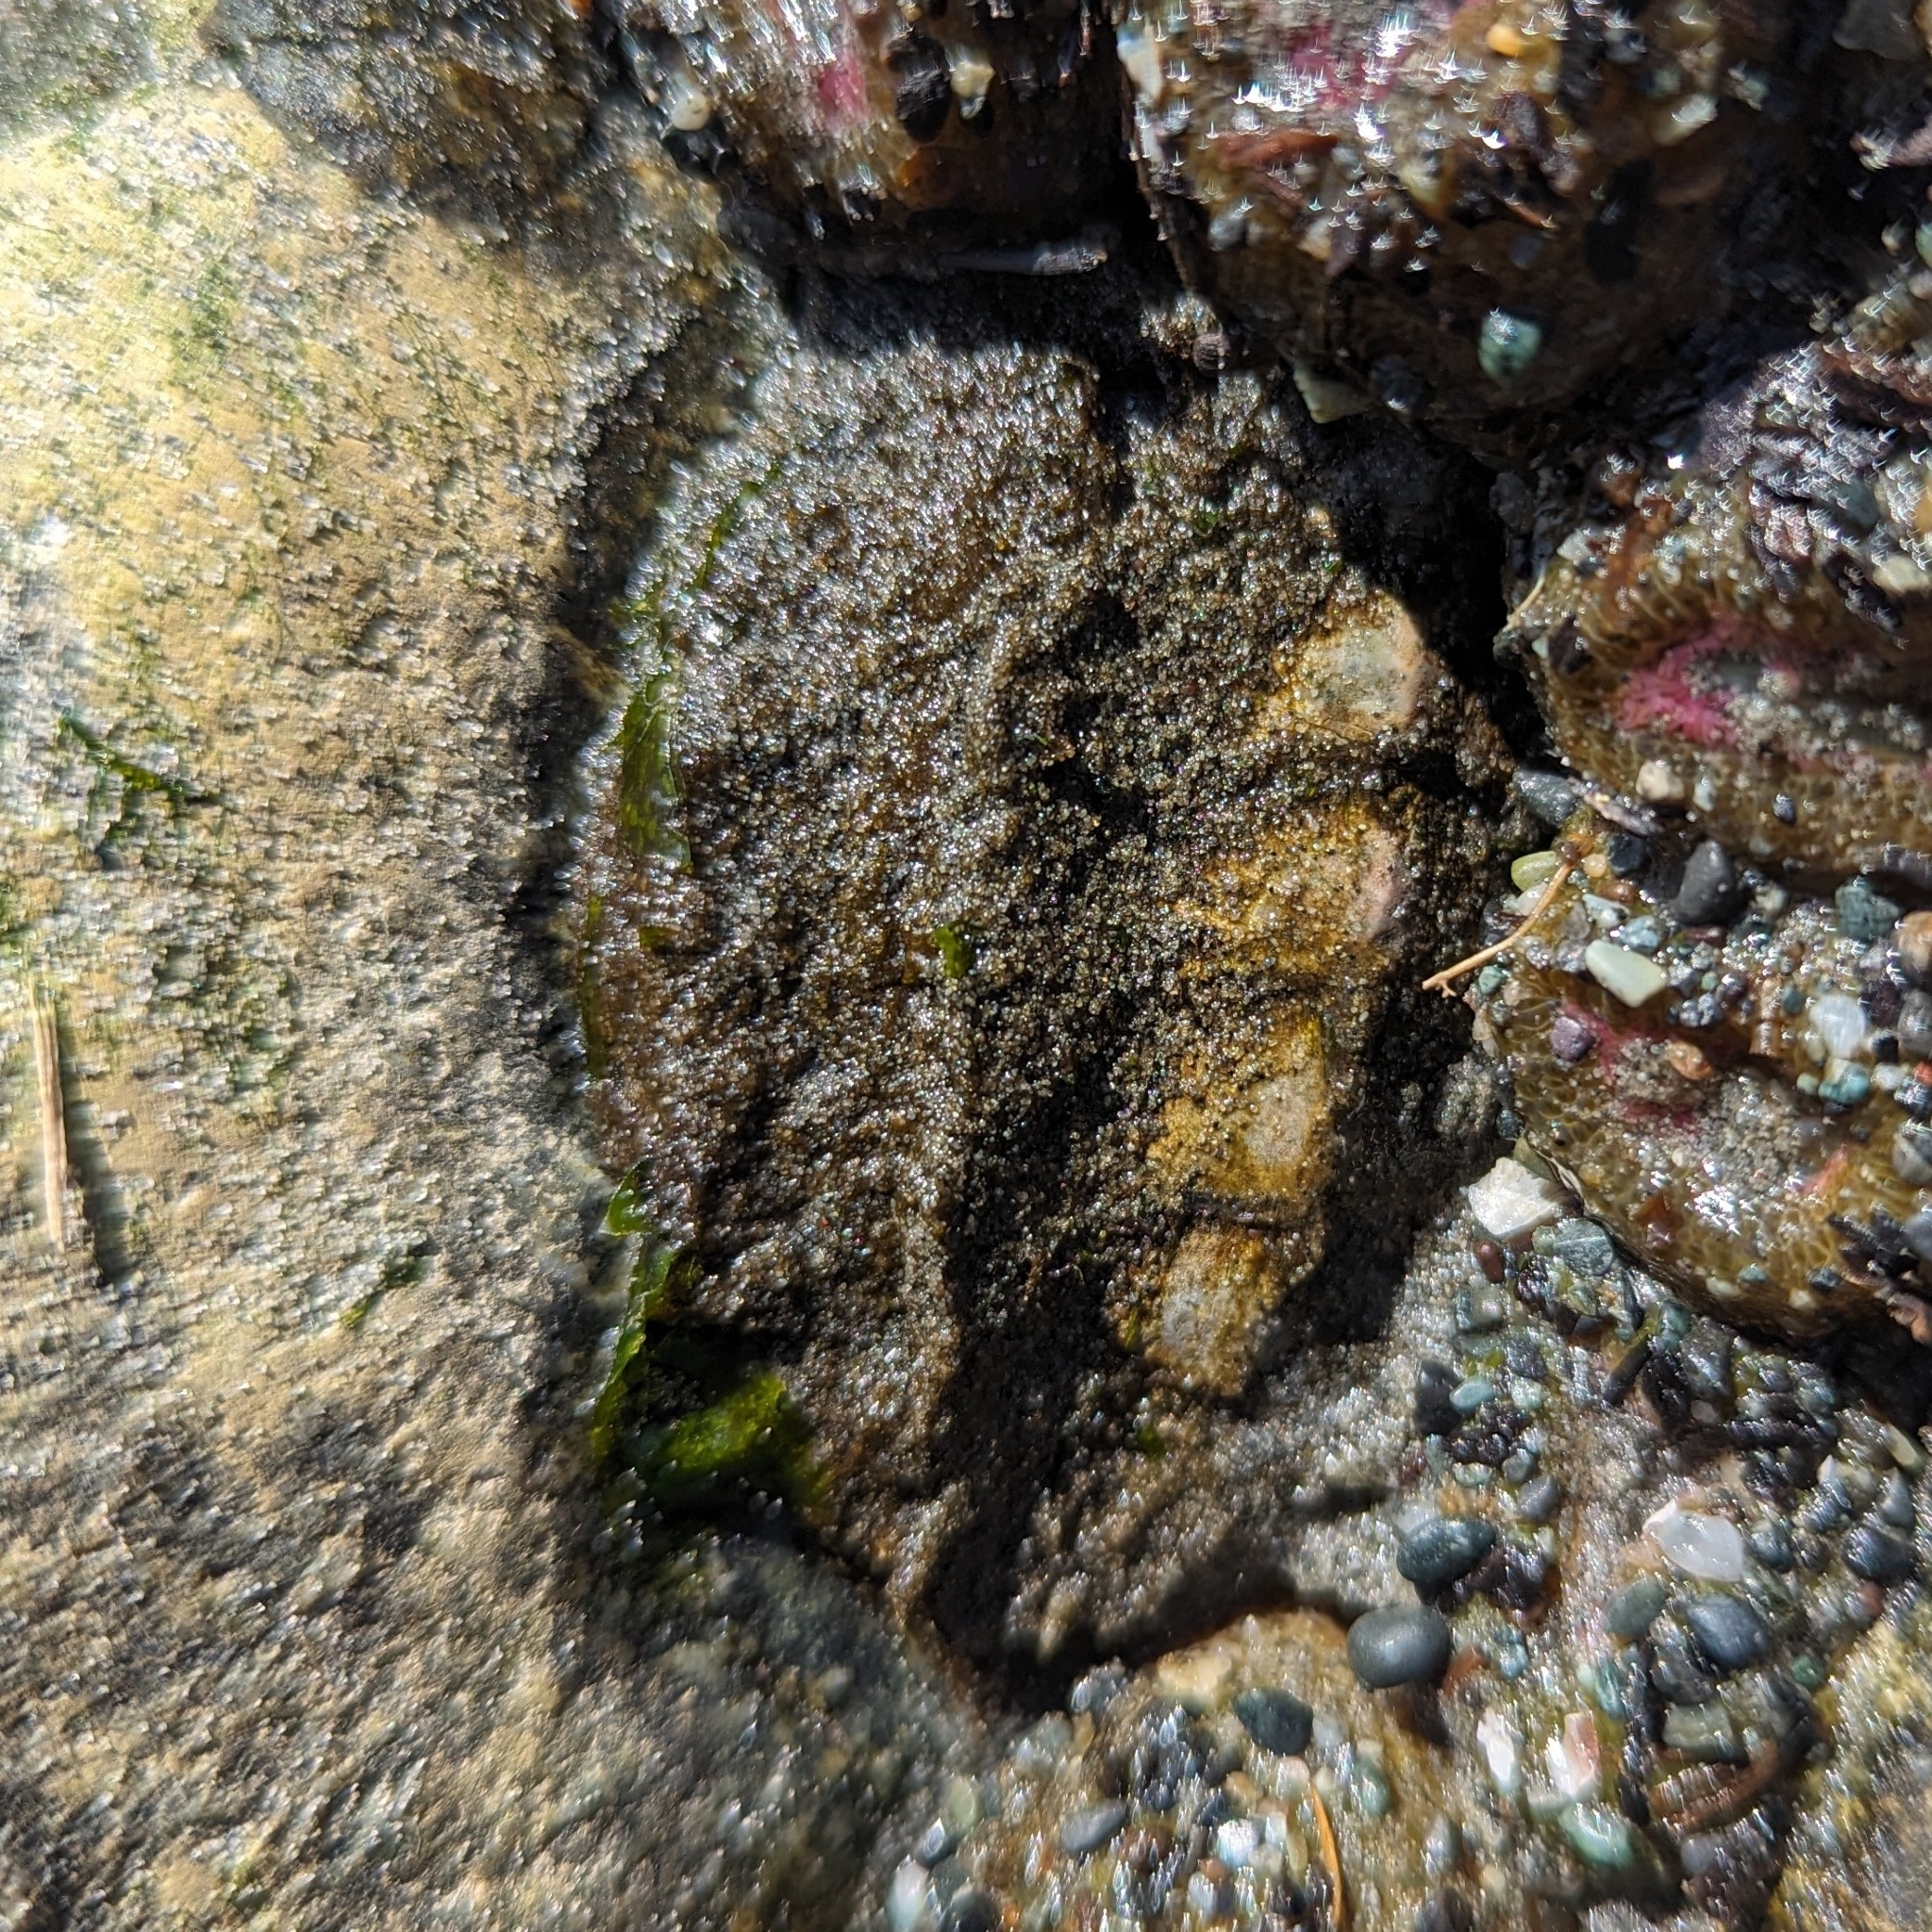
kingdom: Animalia
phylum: Mollusca
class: Polyplacophora
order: Chitonida
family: Mopaliidae
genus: Mopalia
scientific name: Mopalia muscosa
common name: Mossy chiton
